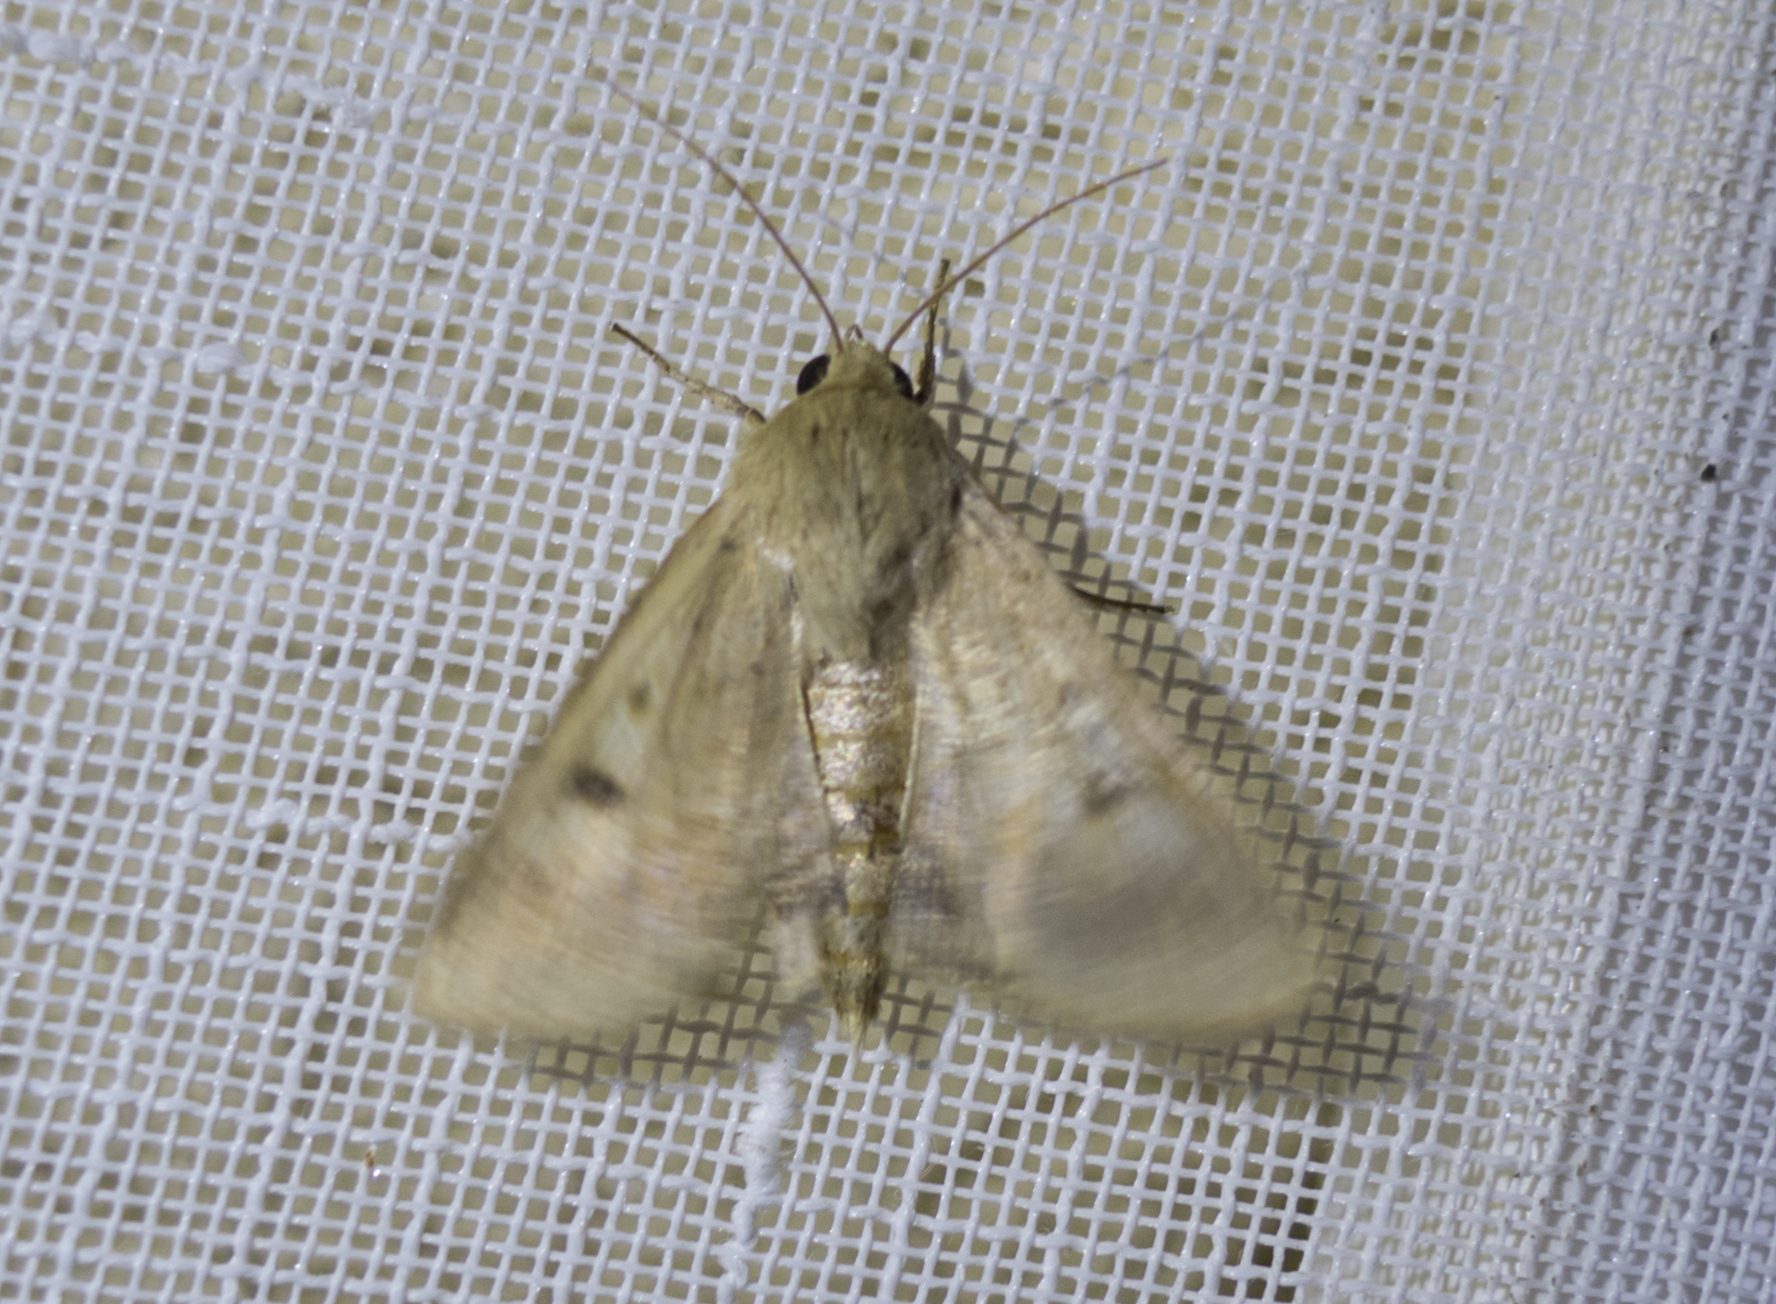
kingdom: Animalia
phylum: Arthropoda
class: Insecta
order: Lepidoptera
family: Noctuidae
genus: Helicoverpa
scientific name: Helicoverpa armigera
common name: Cotton bollworm
